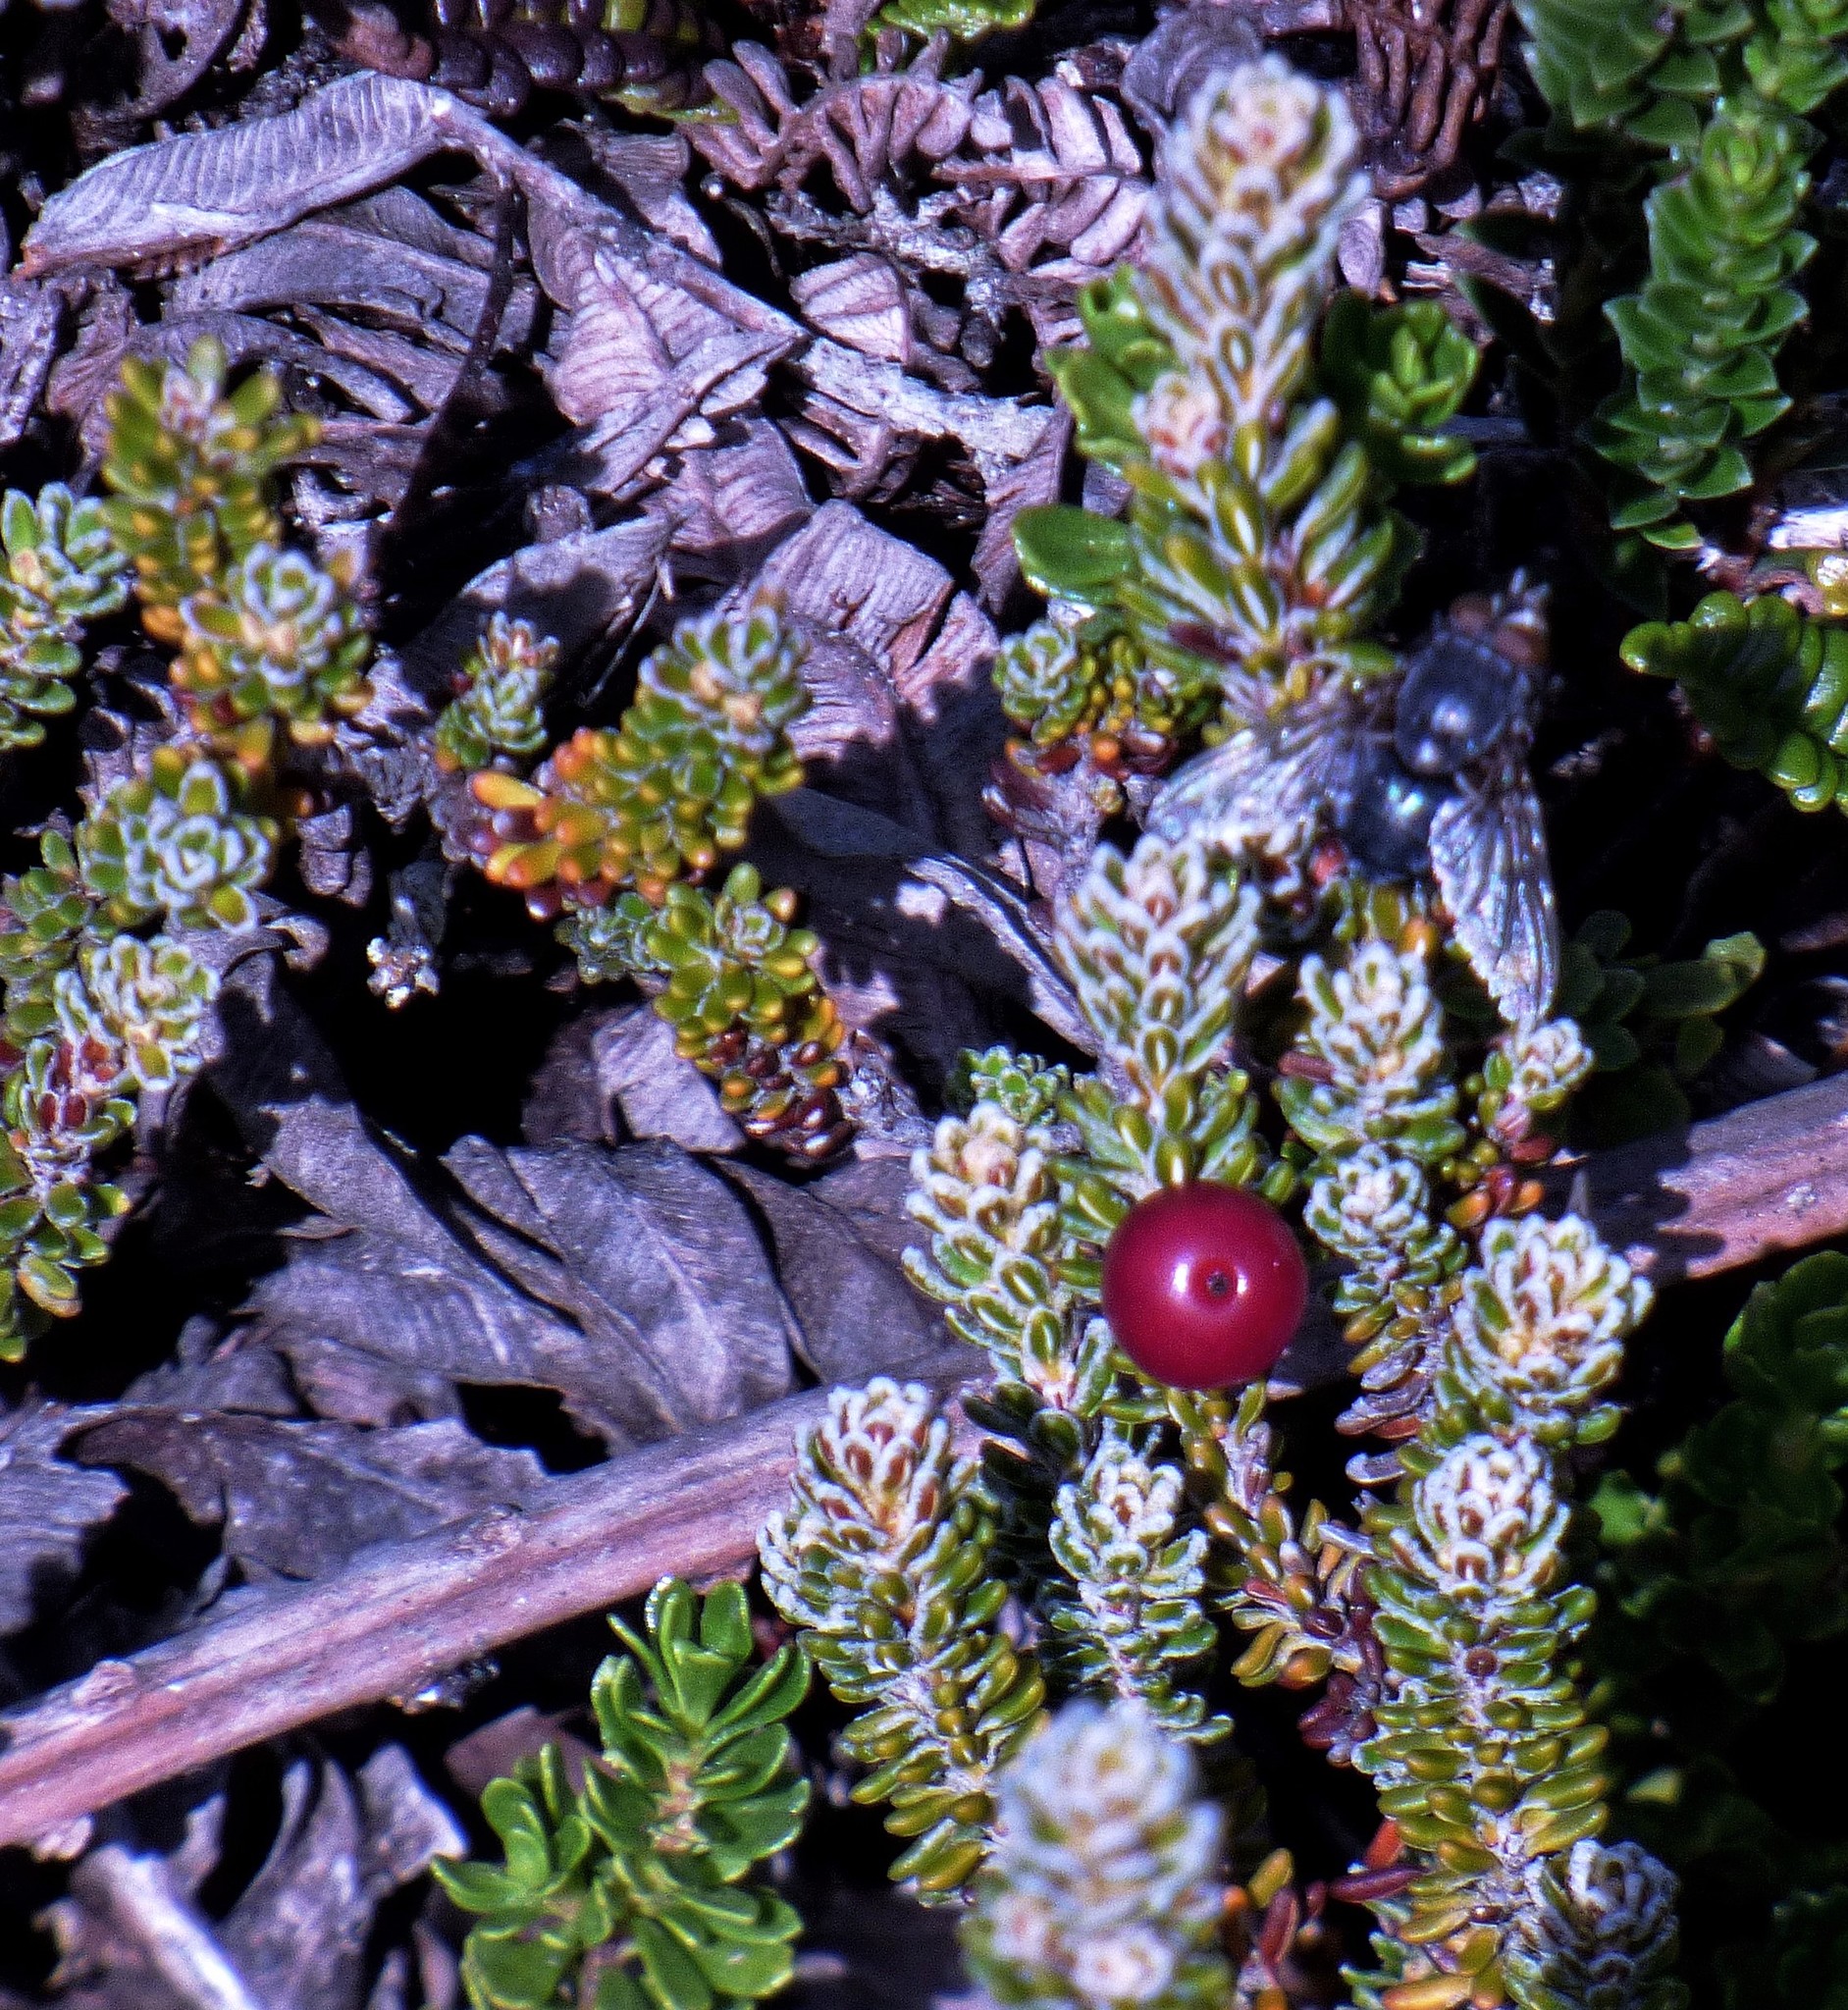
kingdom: Plantae
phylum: Tracheophyta
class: Magnoliopsida
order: Ericales
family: Ericaceae
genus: Empetrum
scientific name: Empetrum rubrum
